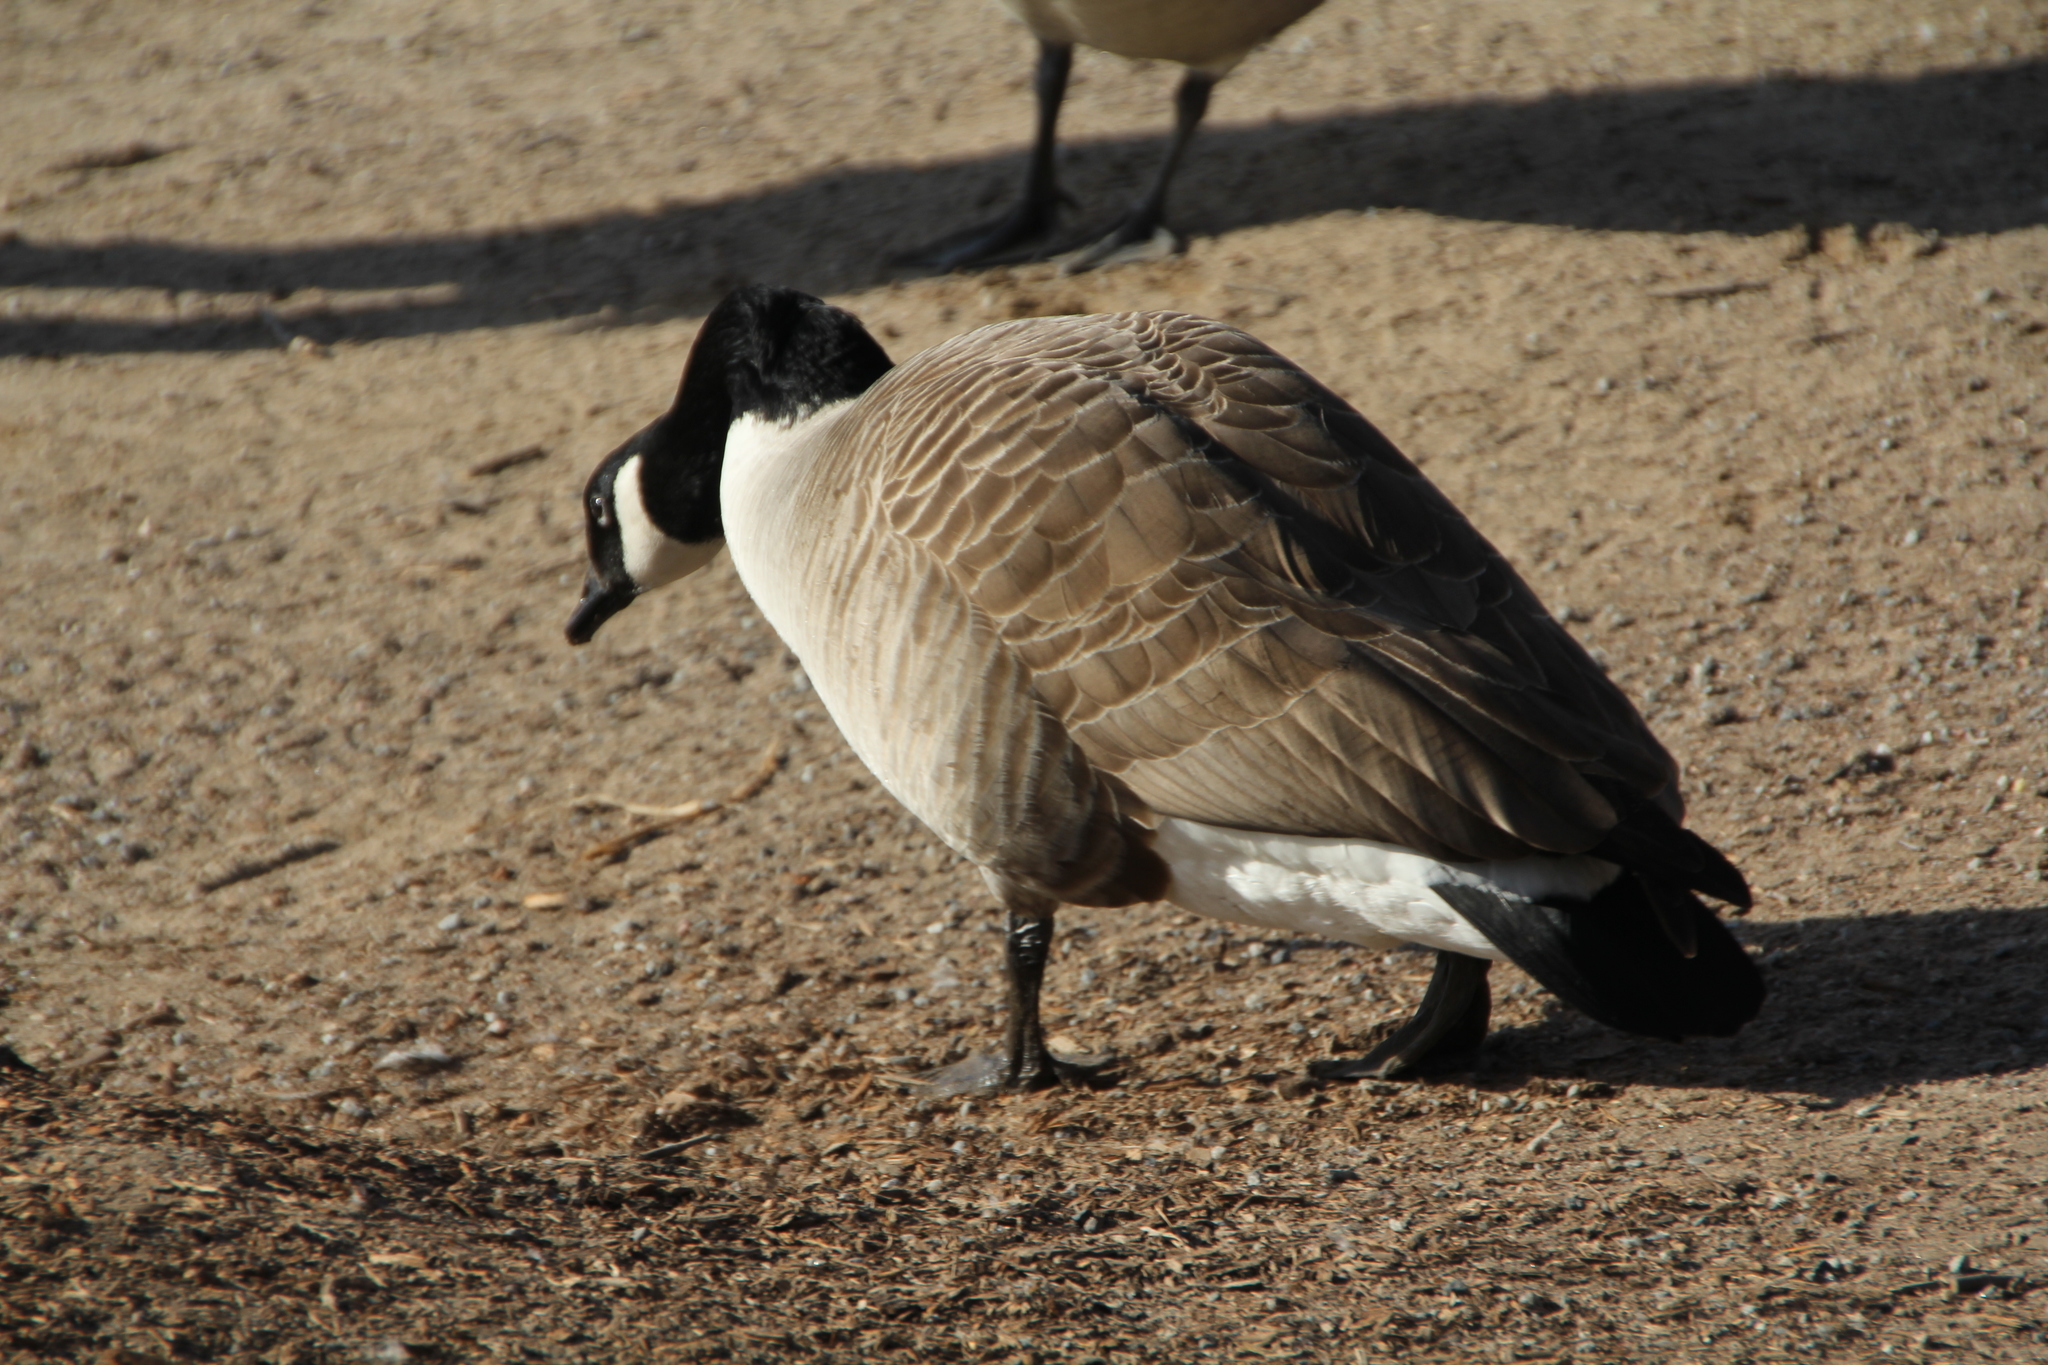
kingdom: Animalia
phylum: Chordata
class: Aves
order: Anseriformes
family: Anatidae
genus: Branta
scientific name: Branta canadensis
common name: Canada goose
